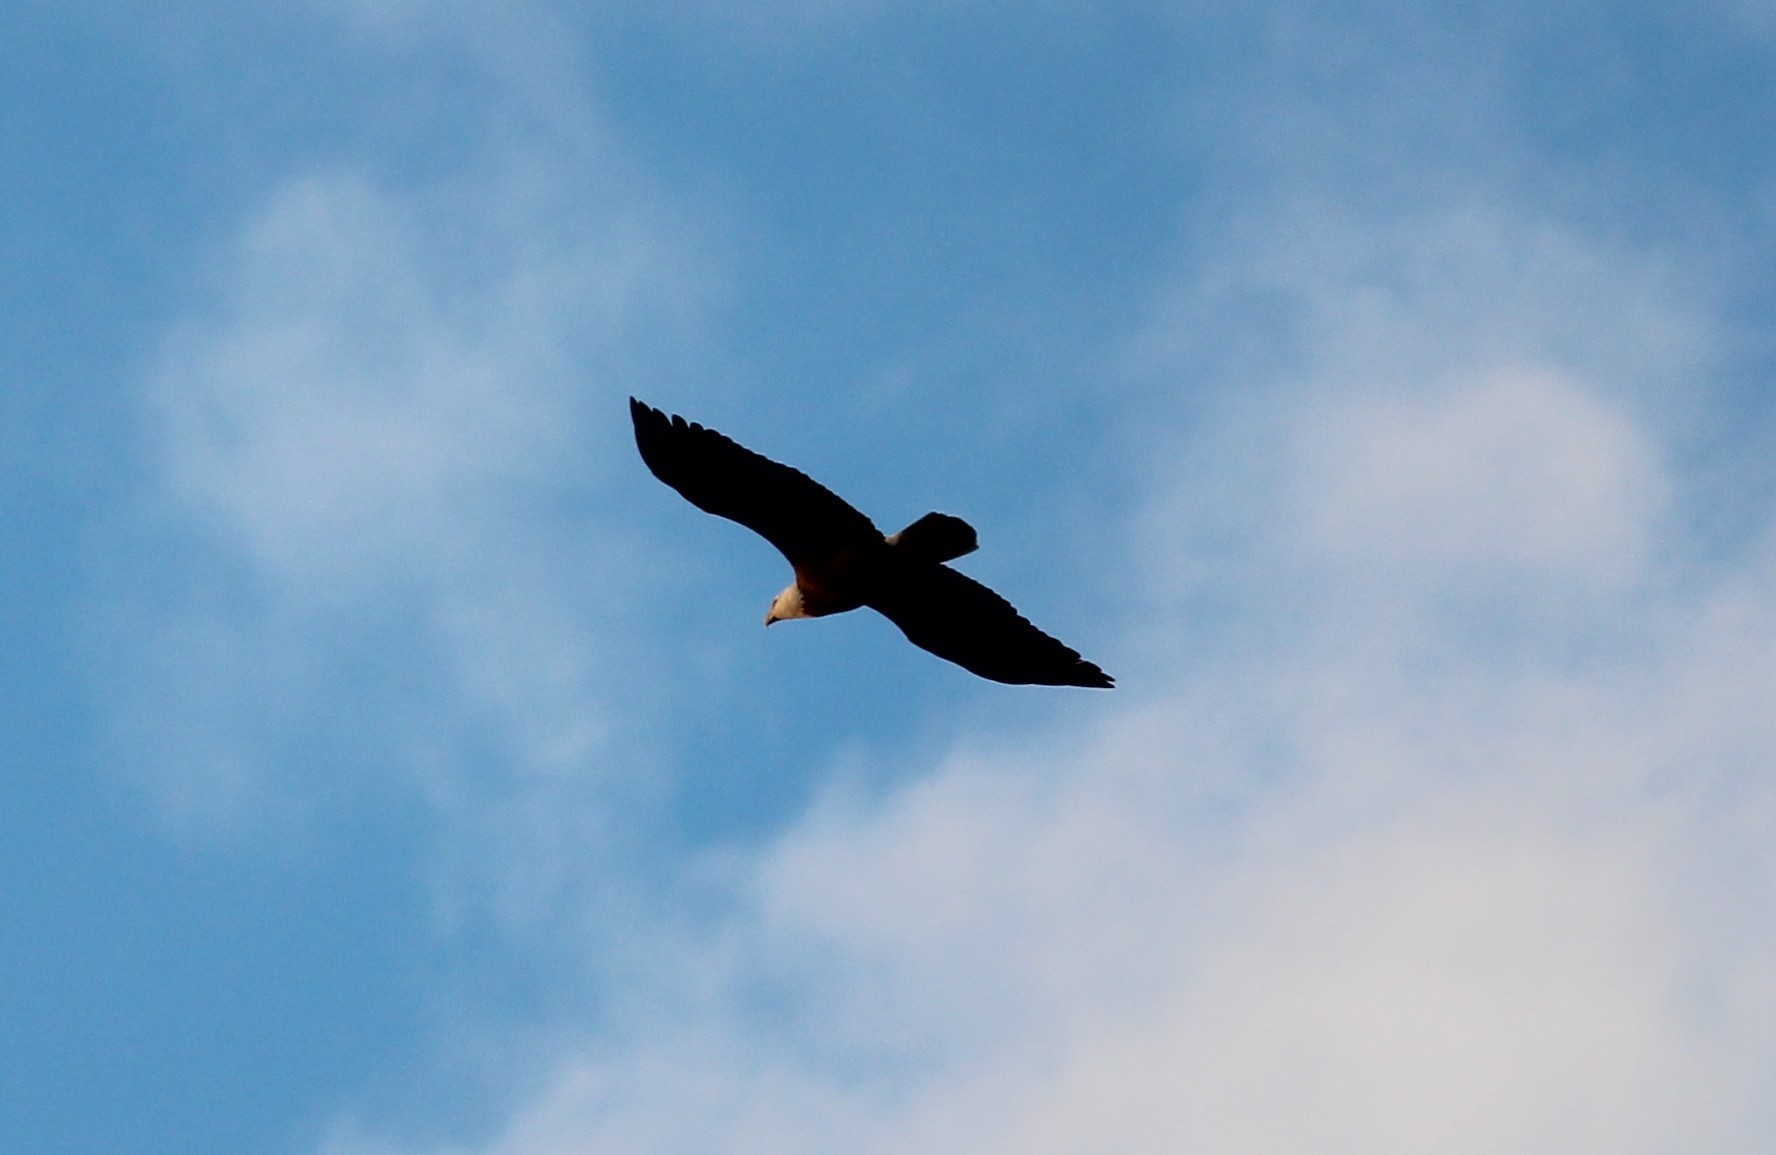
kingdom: Animalia
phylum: Chordata
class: Aves
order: Accipitriformes
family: Accipitridae
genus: Haliaeetus
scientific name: Haliaeetus leucocephalus
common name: Bald eagle
